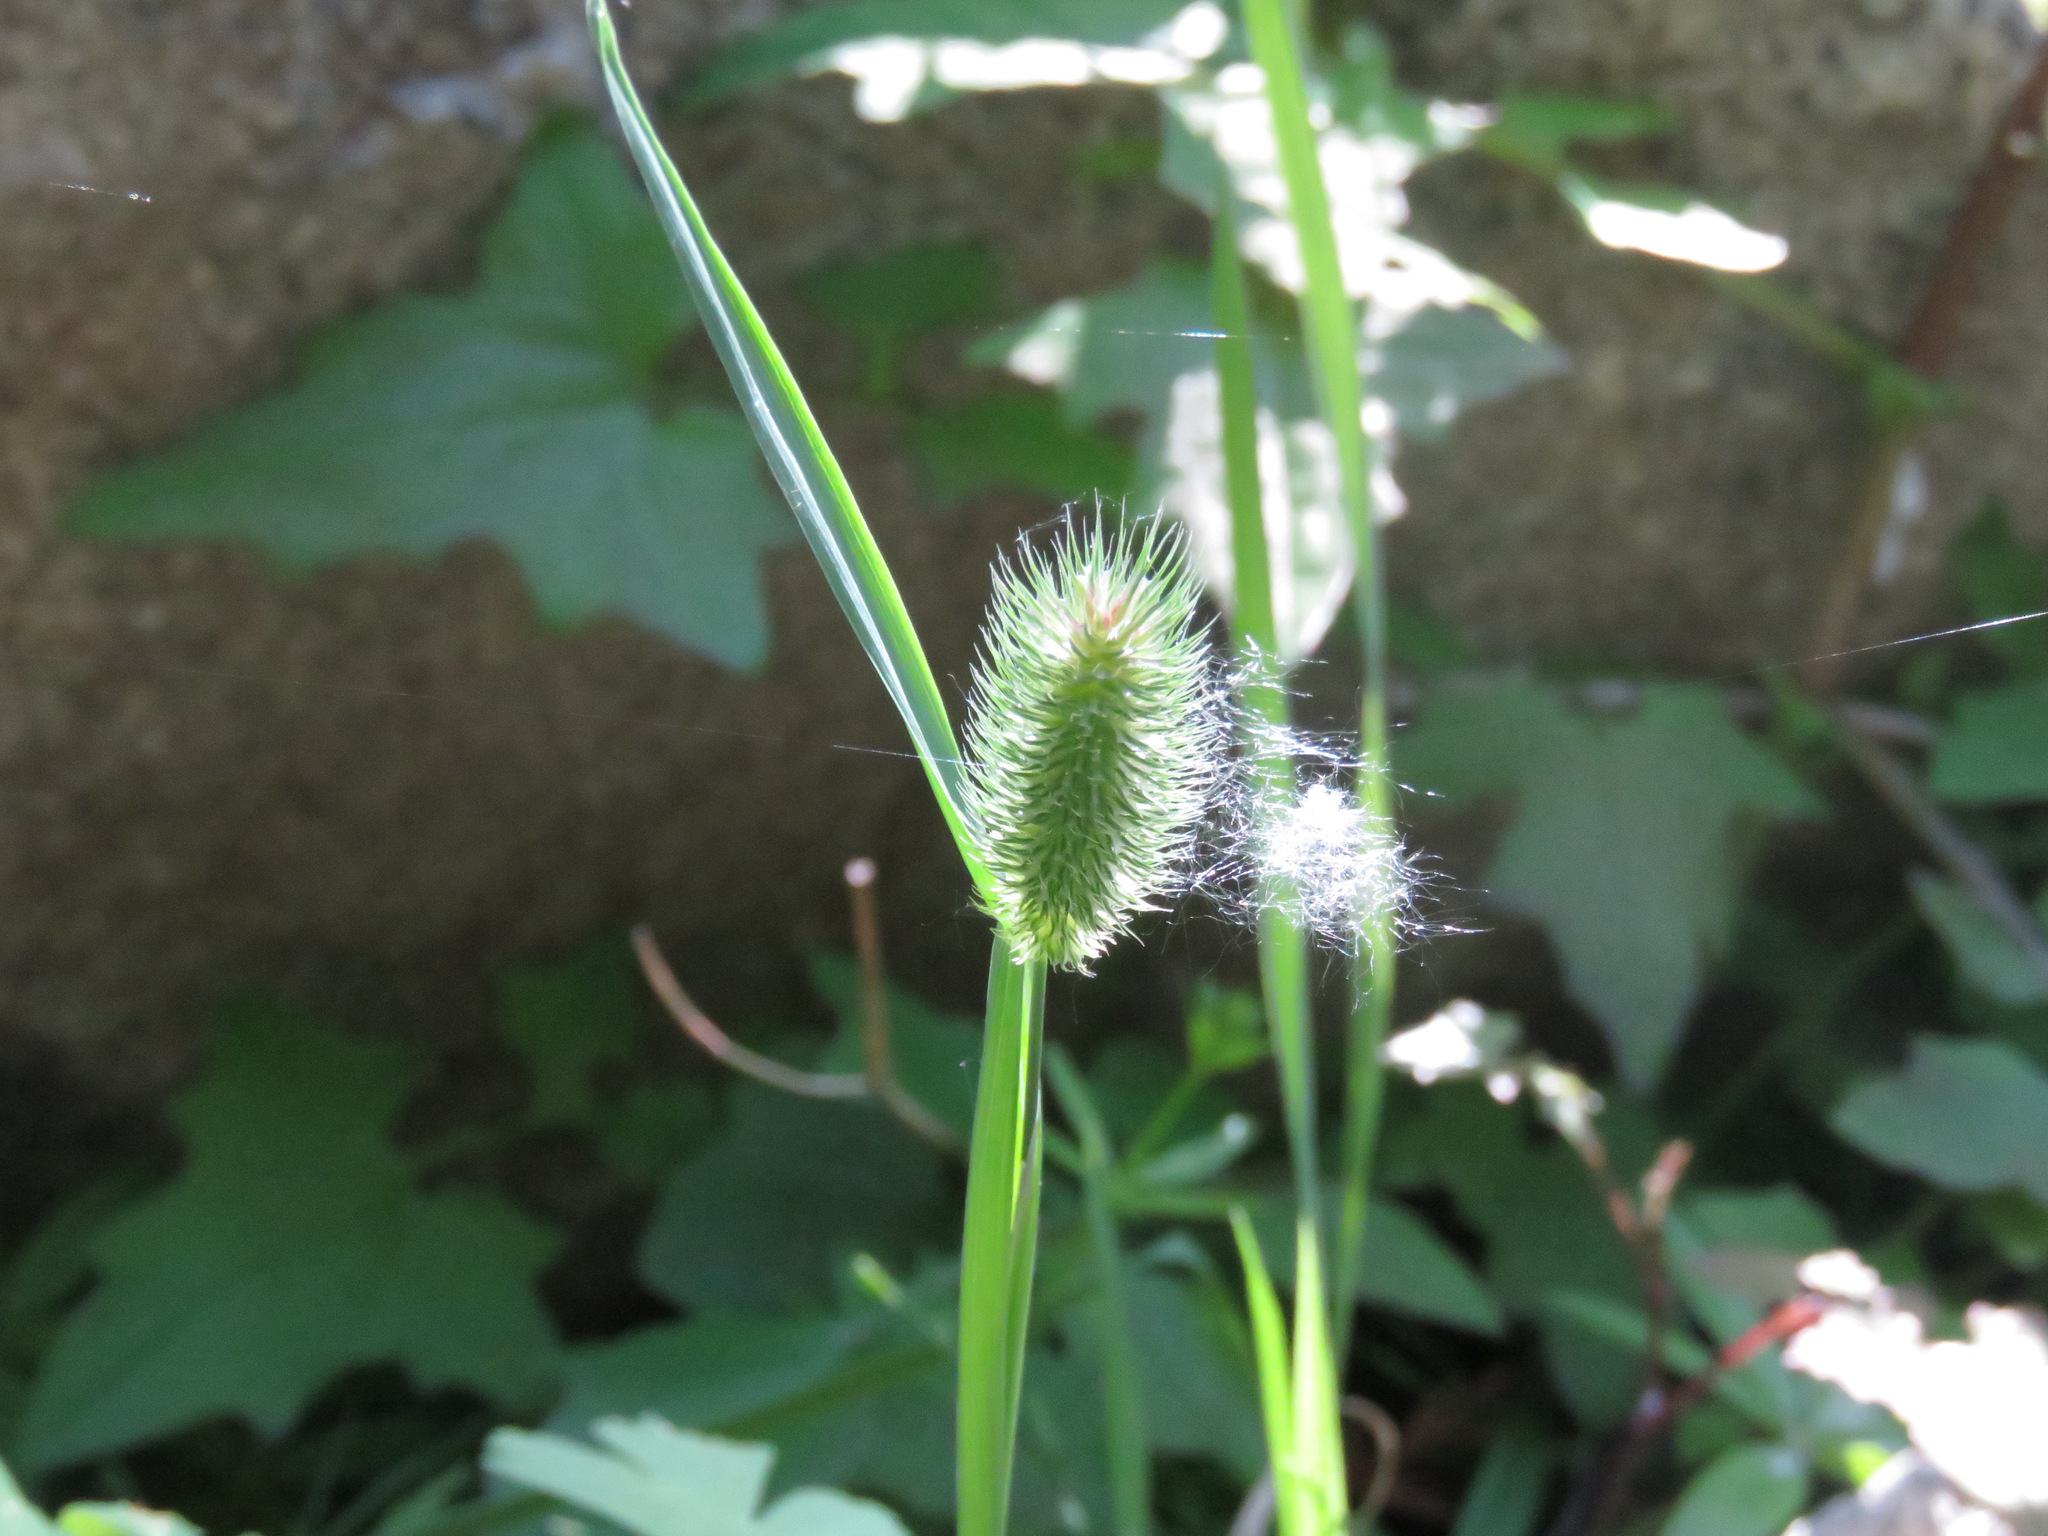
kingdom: Plantae
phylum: Tracheophyta
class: Liliopsida
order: Poales
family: Poaceae
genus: Phleum
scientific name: Phleum alpinum
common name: Alpine cat's-tail
